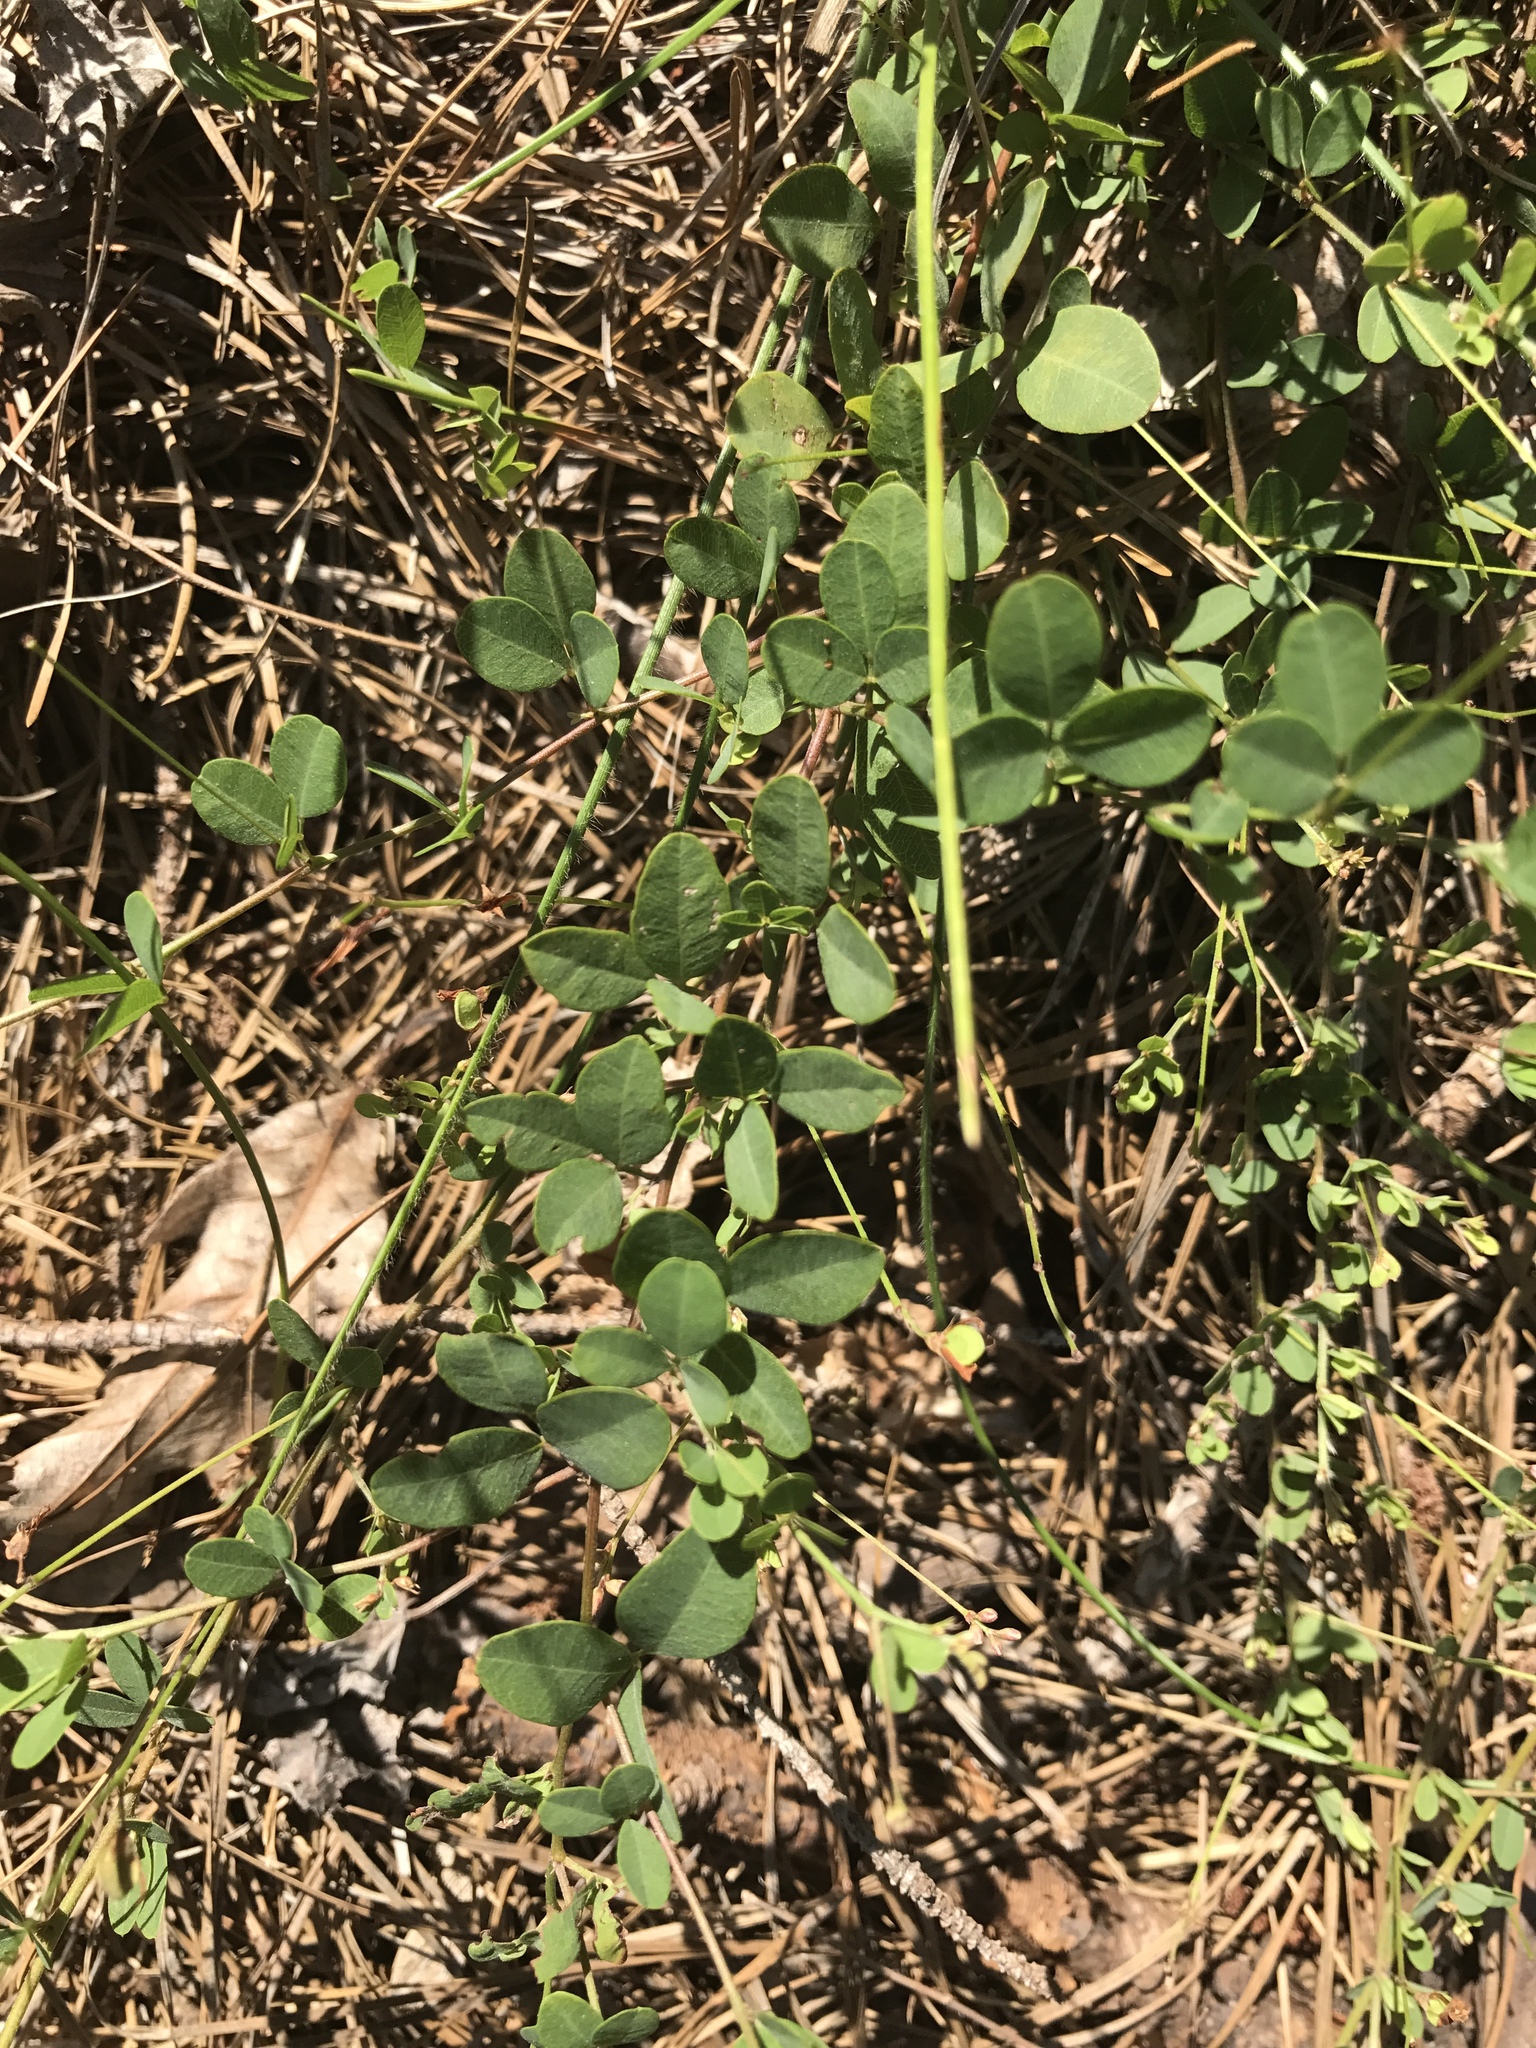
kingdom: Plantae
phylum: Tracheophyta
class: Magnoliopsida
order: Fabales
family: Fabaceae
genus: Lespedeza
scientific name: Lespedeza repens
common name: Creeping bush-clover
